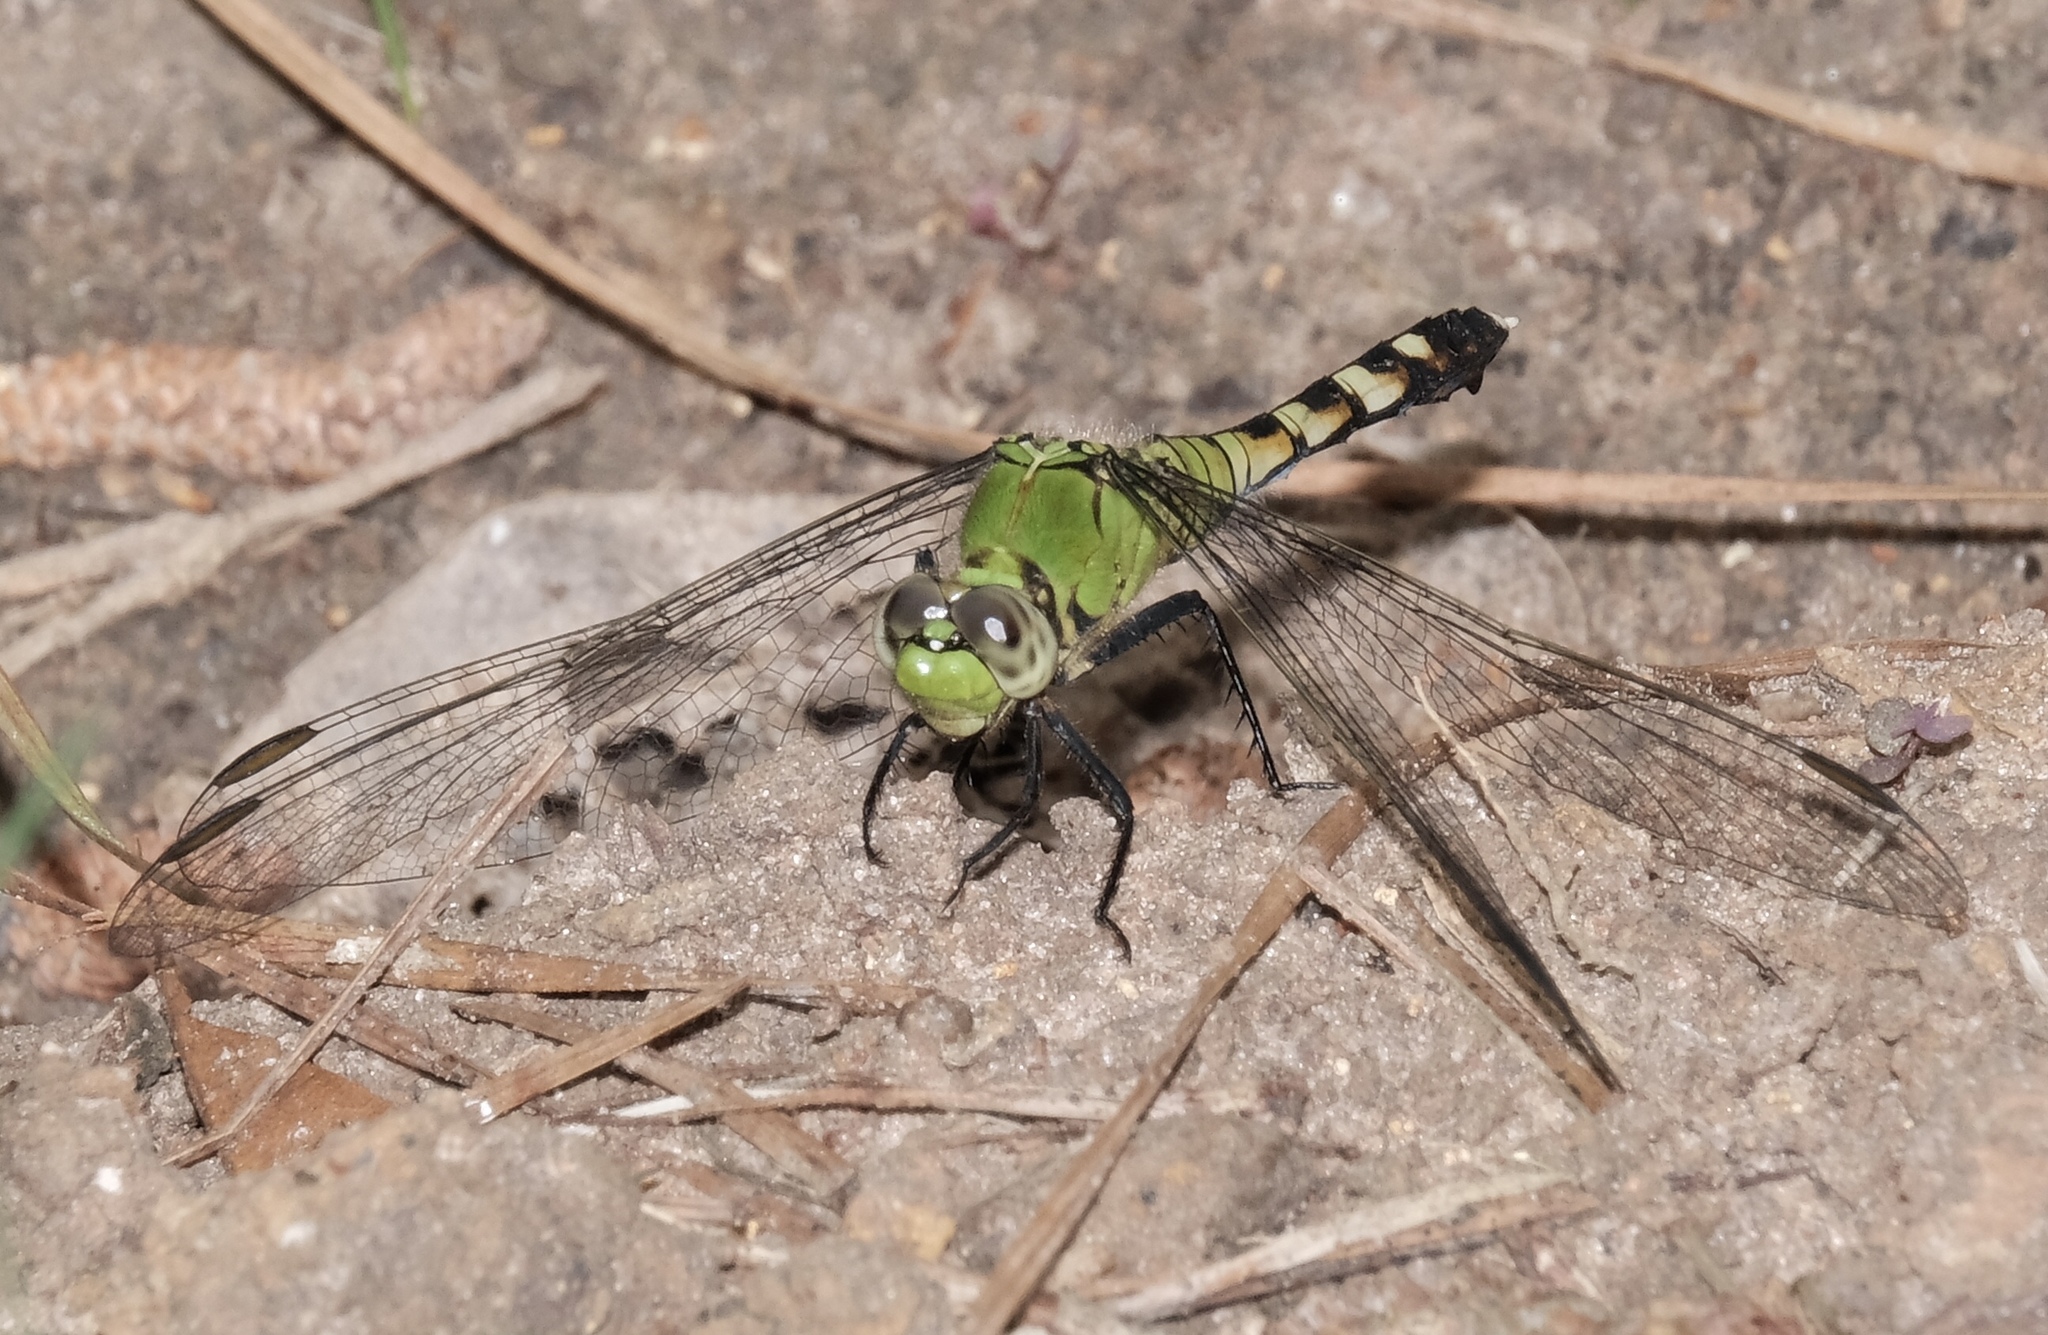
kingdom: Animalia
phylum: Arthropoda
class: Insecta
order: Odonata
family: Libellulidae
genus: Erythemis
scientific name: Erythemis simplicicollis
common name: Eastern pondhawk
